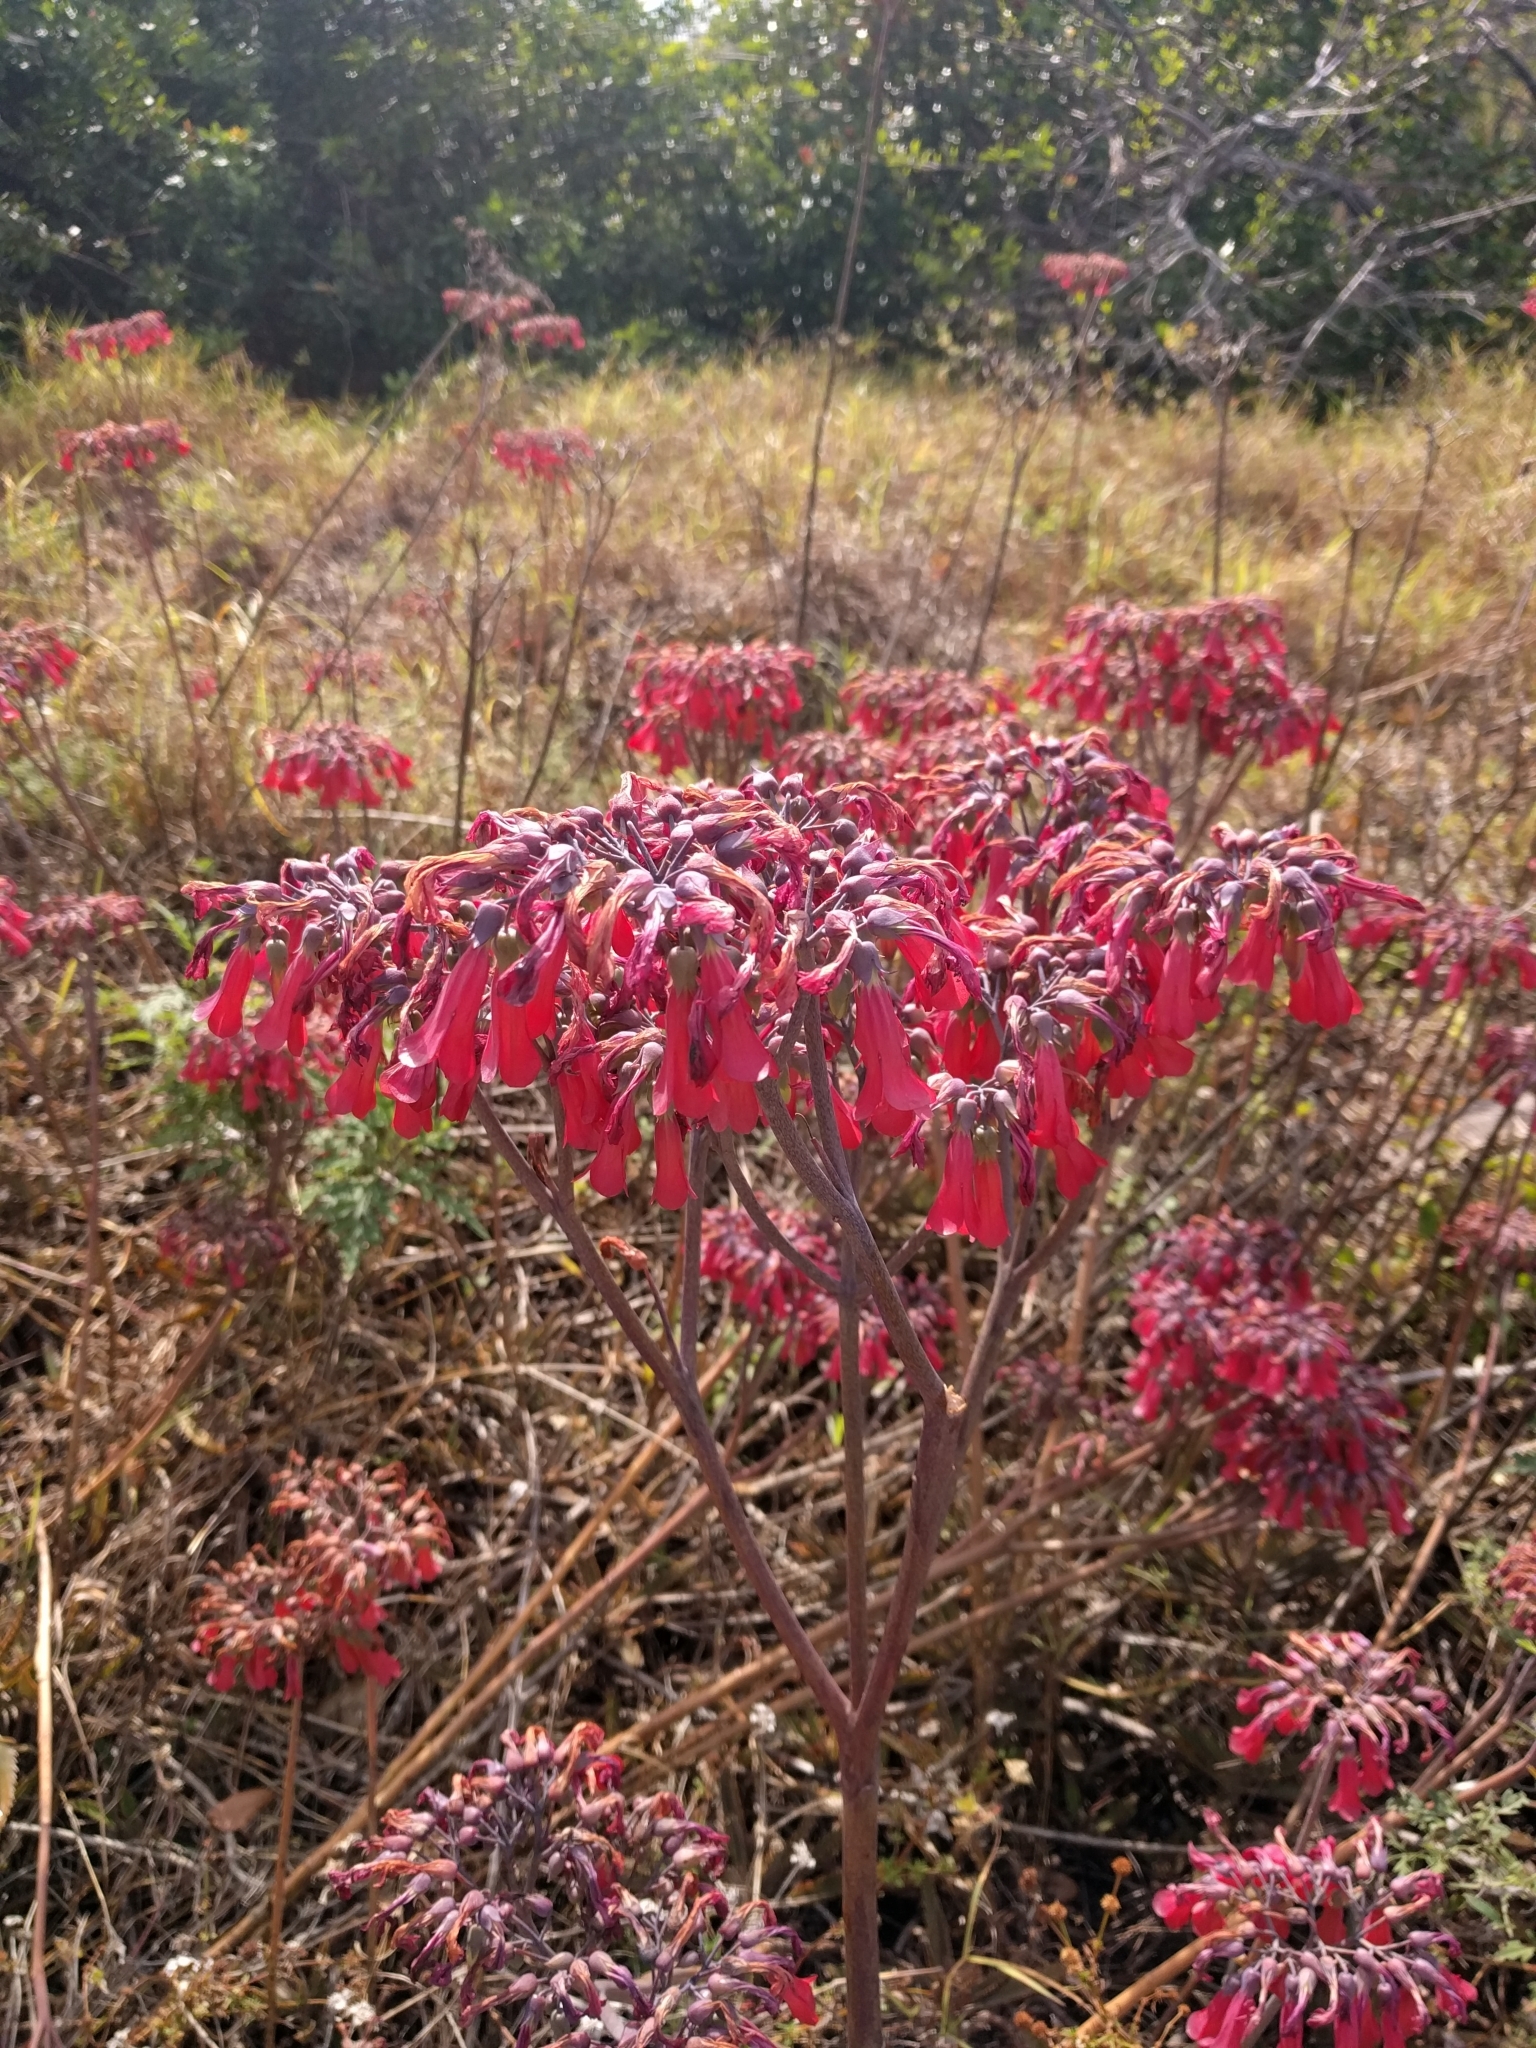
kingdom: Chromista
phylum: Ciliophora
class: Gymnostomatea
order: Spathidiida
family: Spathidiidae
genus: Bryophyllum
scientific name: Bryophyllum
